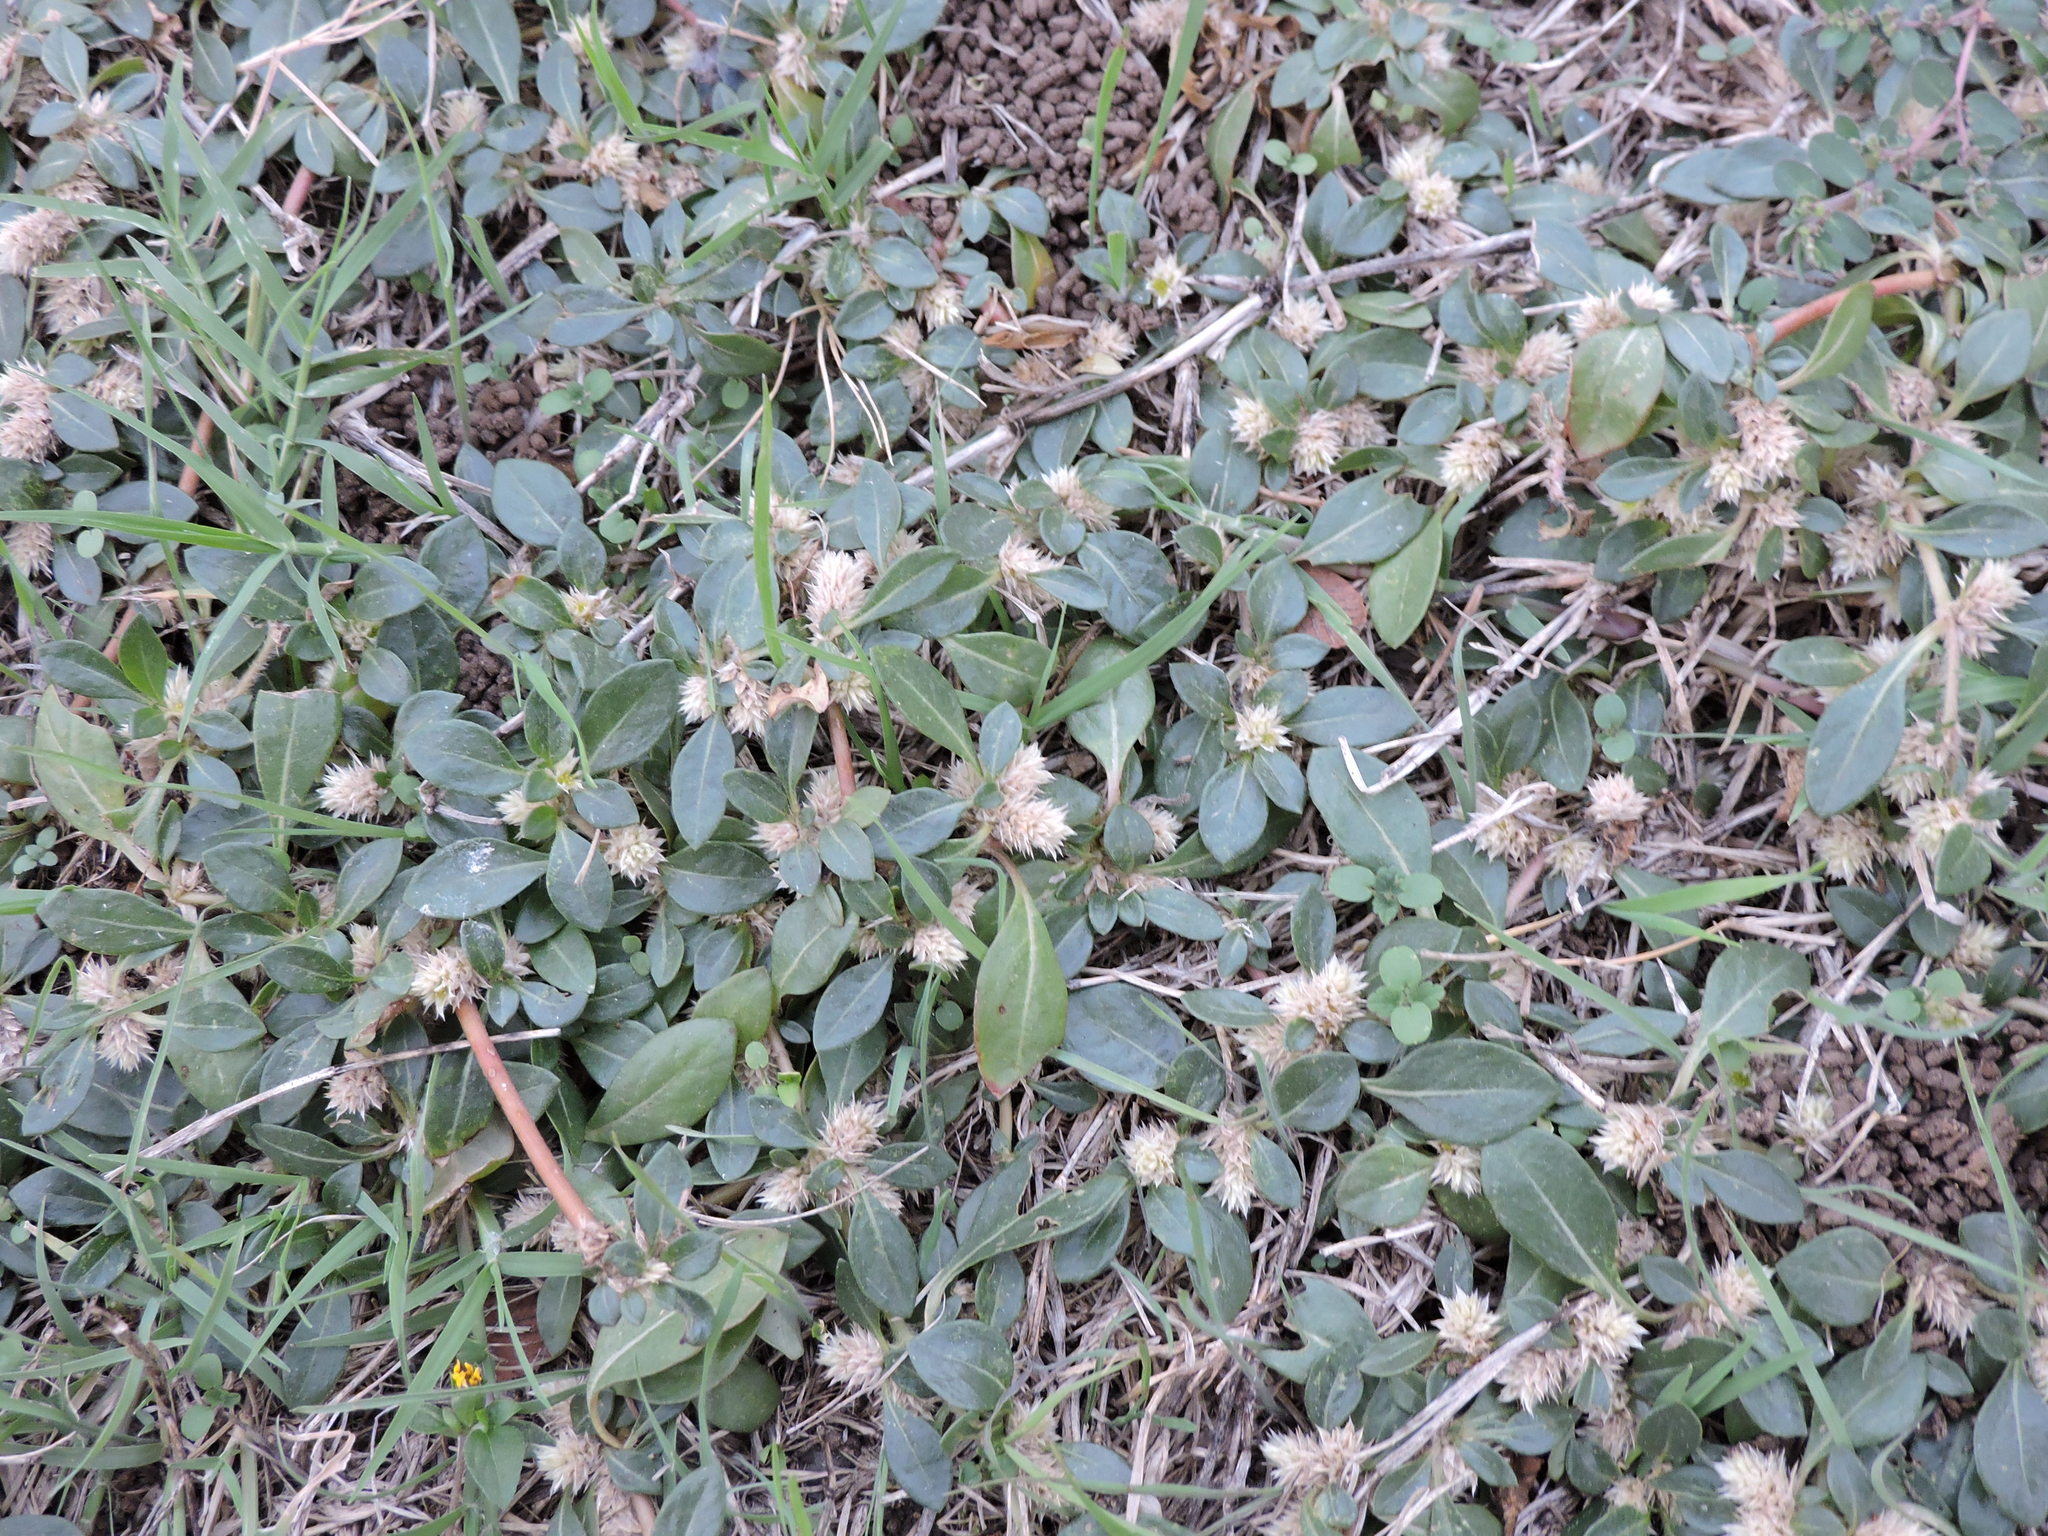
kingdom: Plantae
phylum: Tracheophyta
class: Magnoliopsida
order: Caryophyllales
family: Amaranthaceae
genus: Alternanthera
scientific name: Alternanthera caracasana
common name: Washerwoman
